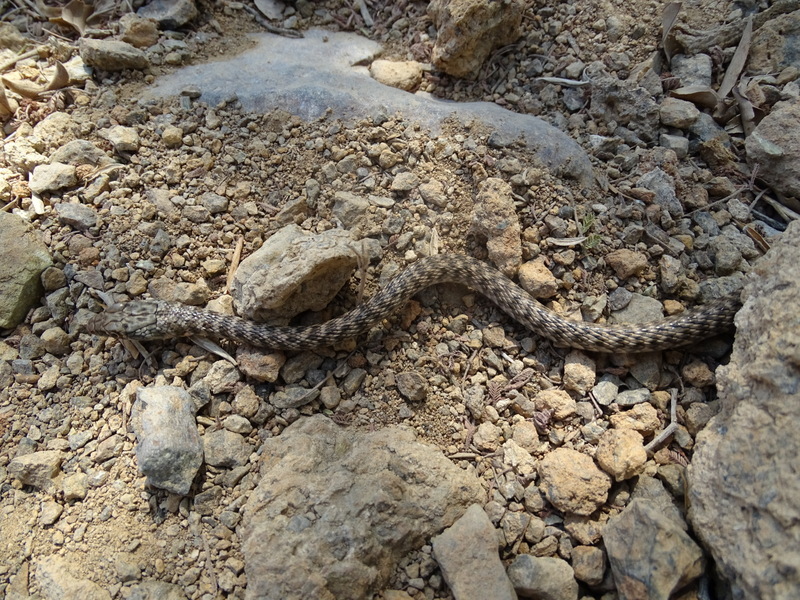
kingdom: Animalia
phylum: Chordata
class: Squamata
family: Colubridae
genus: Platyceps
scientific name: Platyceps rhodorachis
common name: Braid snake
